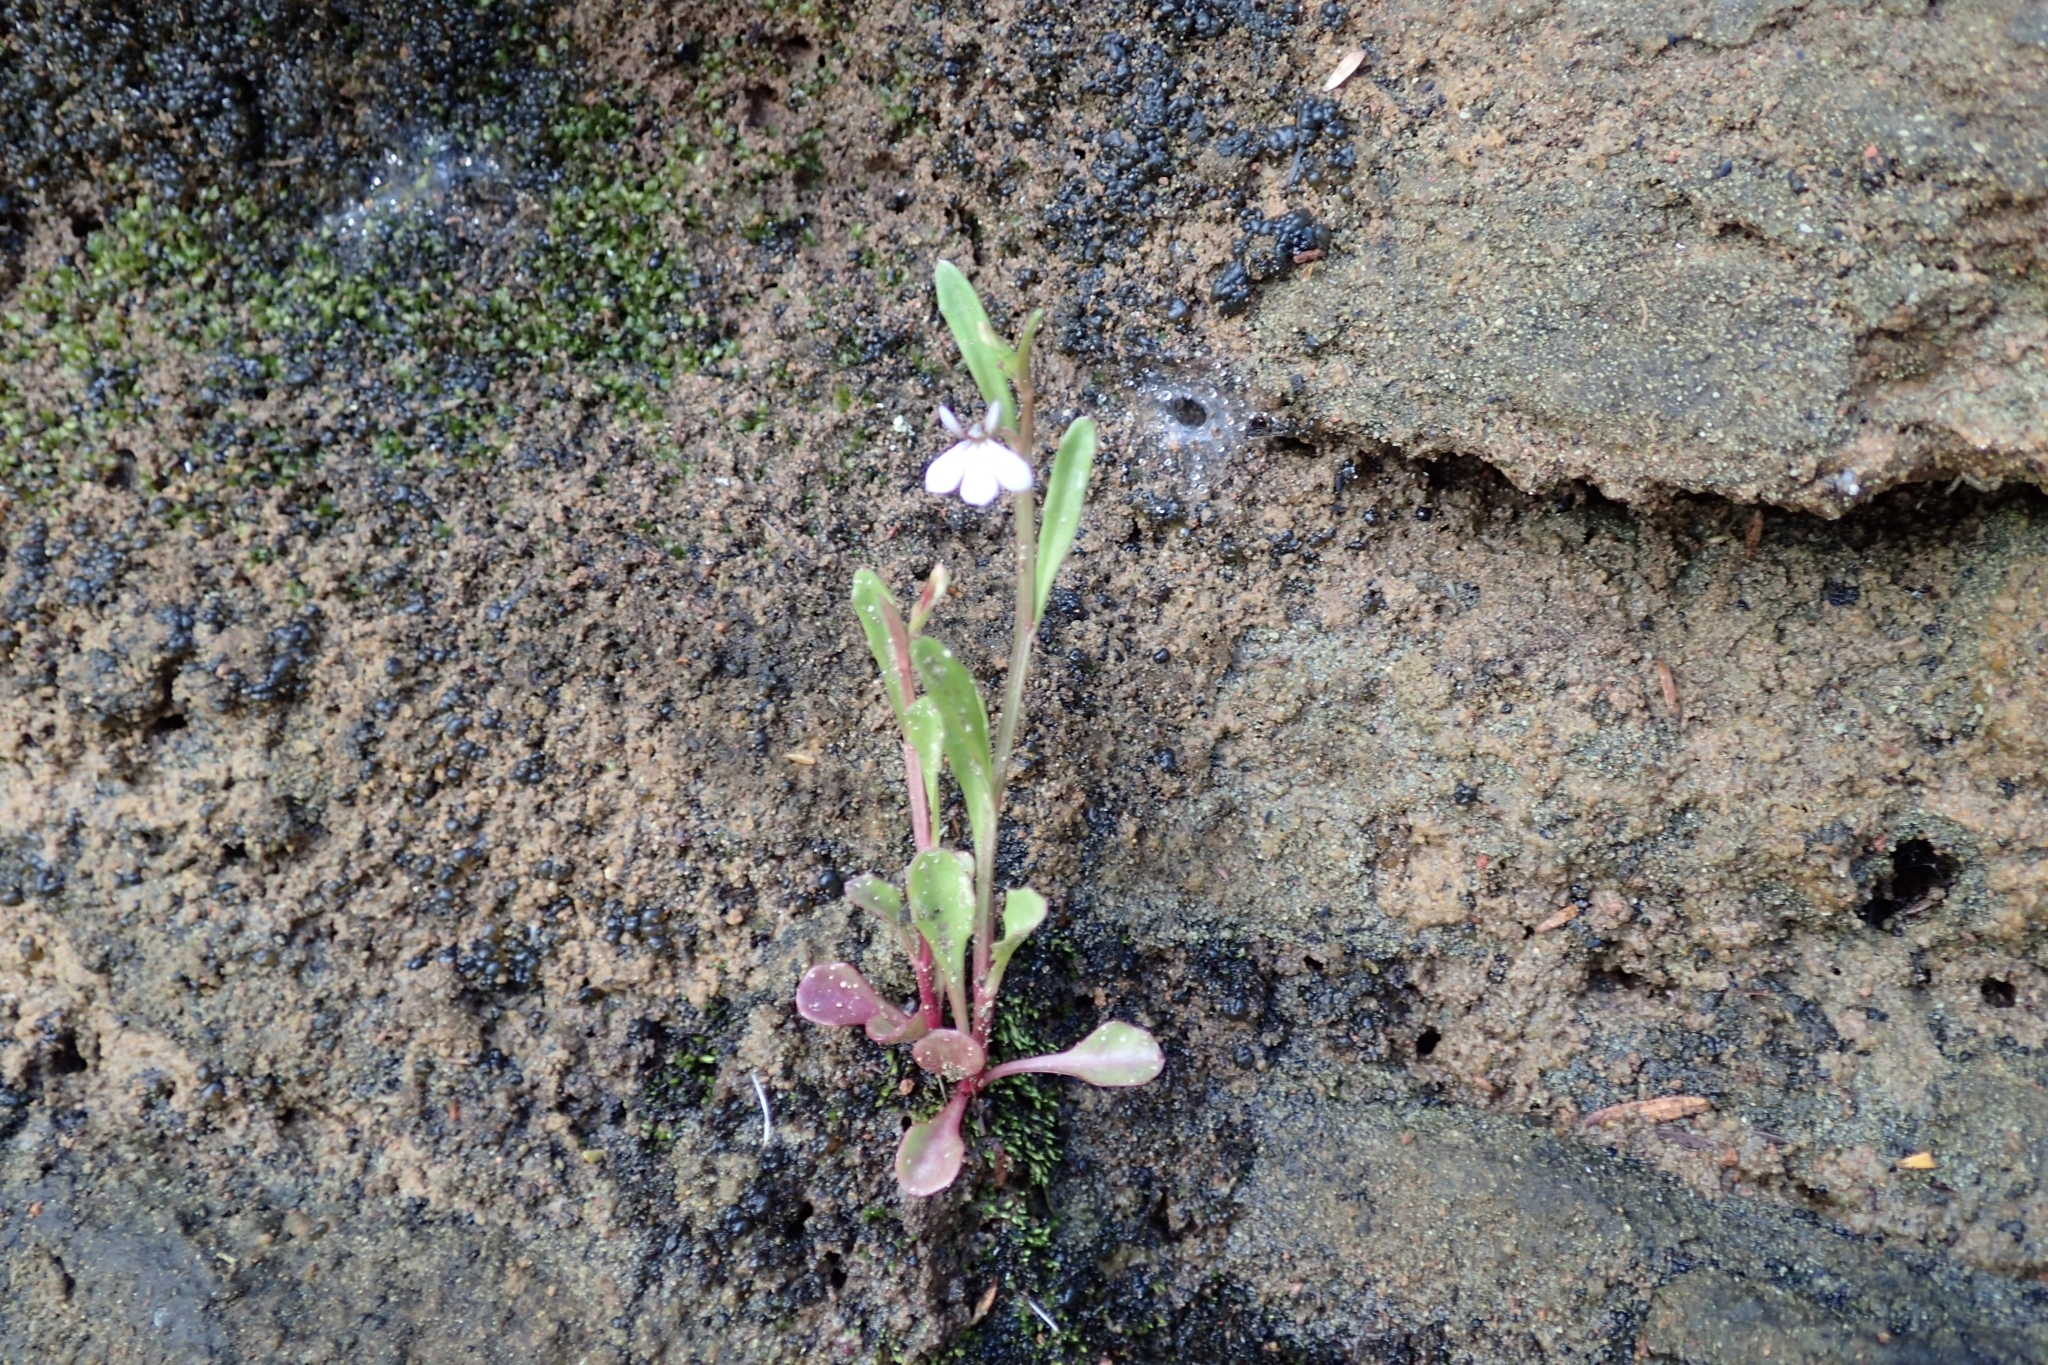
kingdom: Plantae
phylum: Tracheophyta
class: Magnoliopsida
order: Asterales
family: Campanulaceae
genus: Lobelia
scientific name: Lobelia anceps
